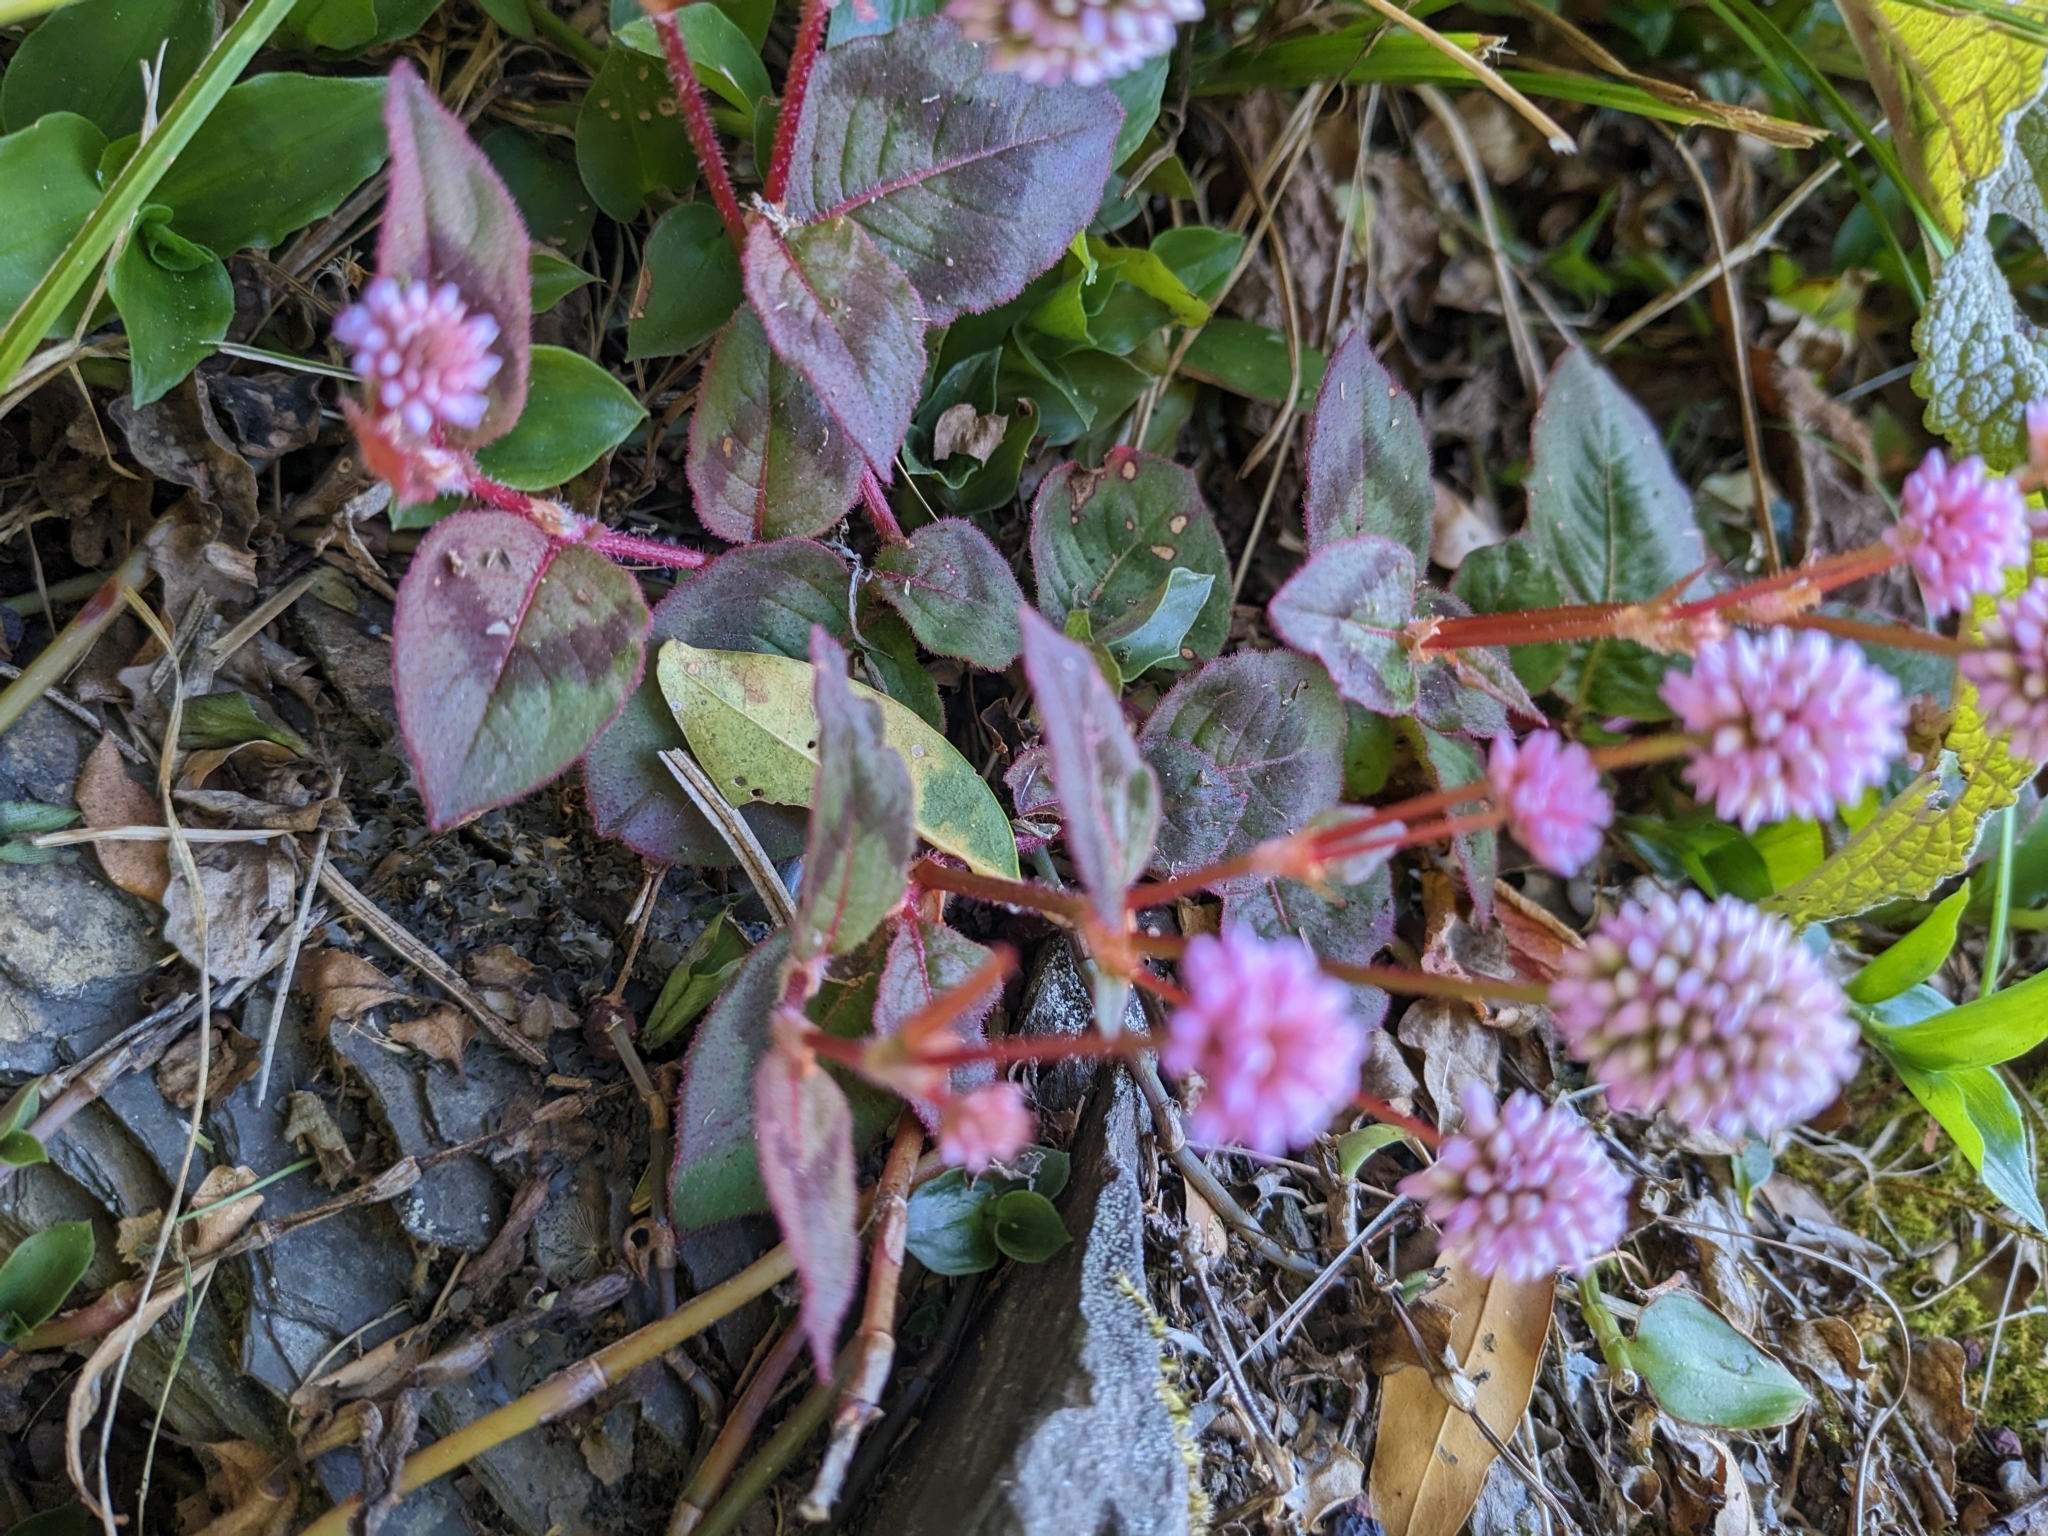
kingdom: Plantae
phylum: Tracheophyta
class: Magnoliopsida
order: Caryophyllales
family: Polygonaceae
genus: Persicaria
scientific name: Persicaria capitata
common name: Pinkhead smartweed
